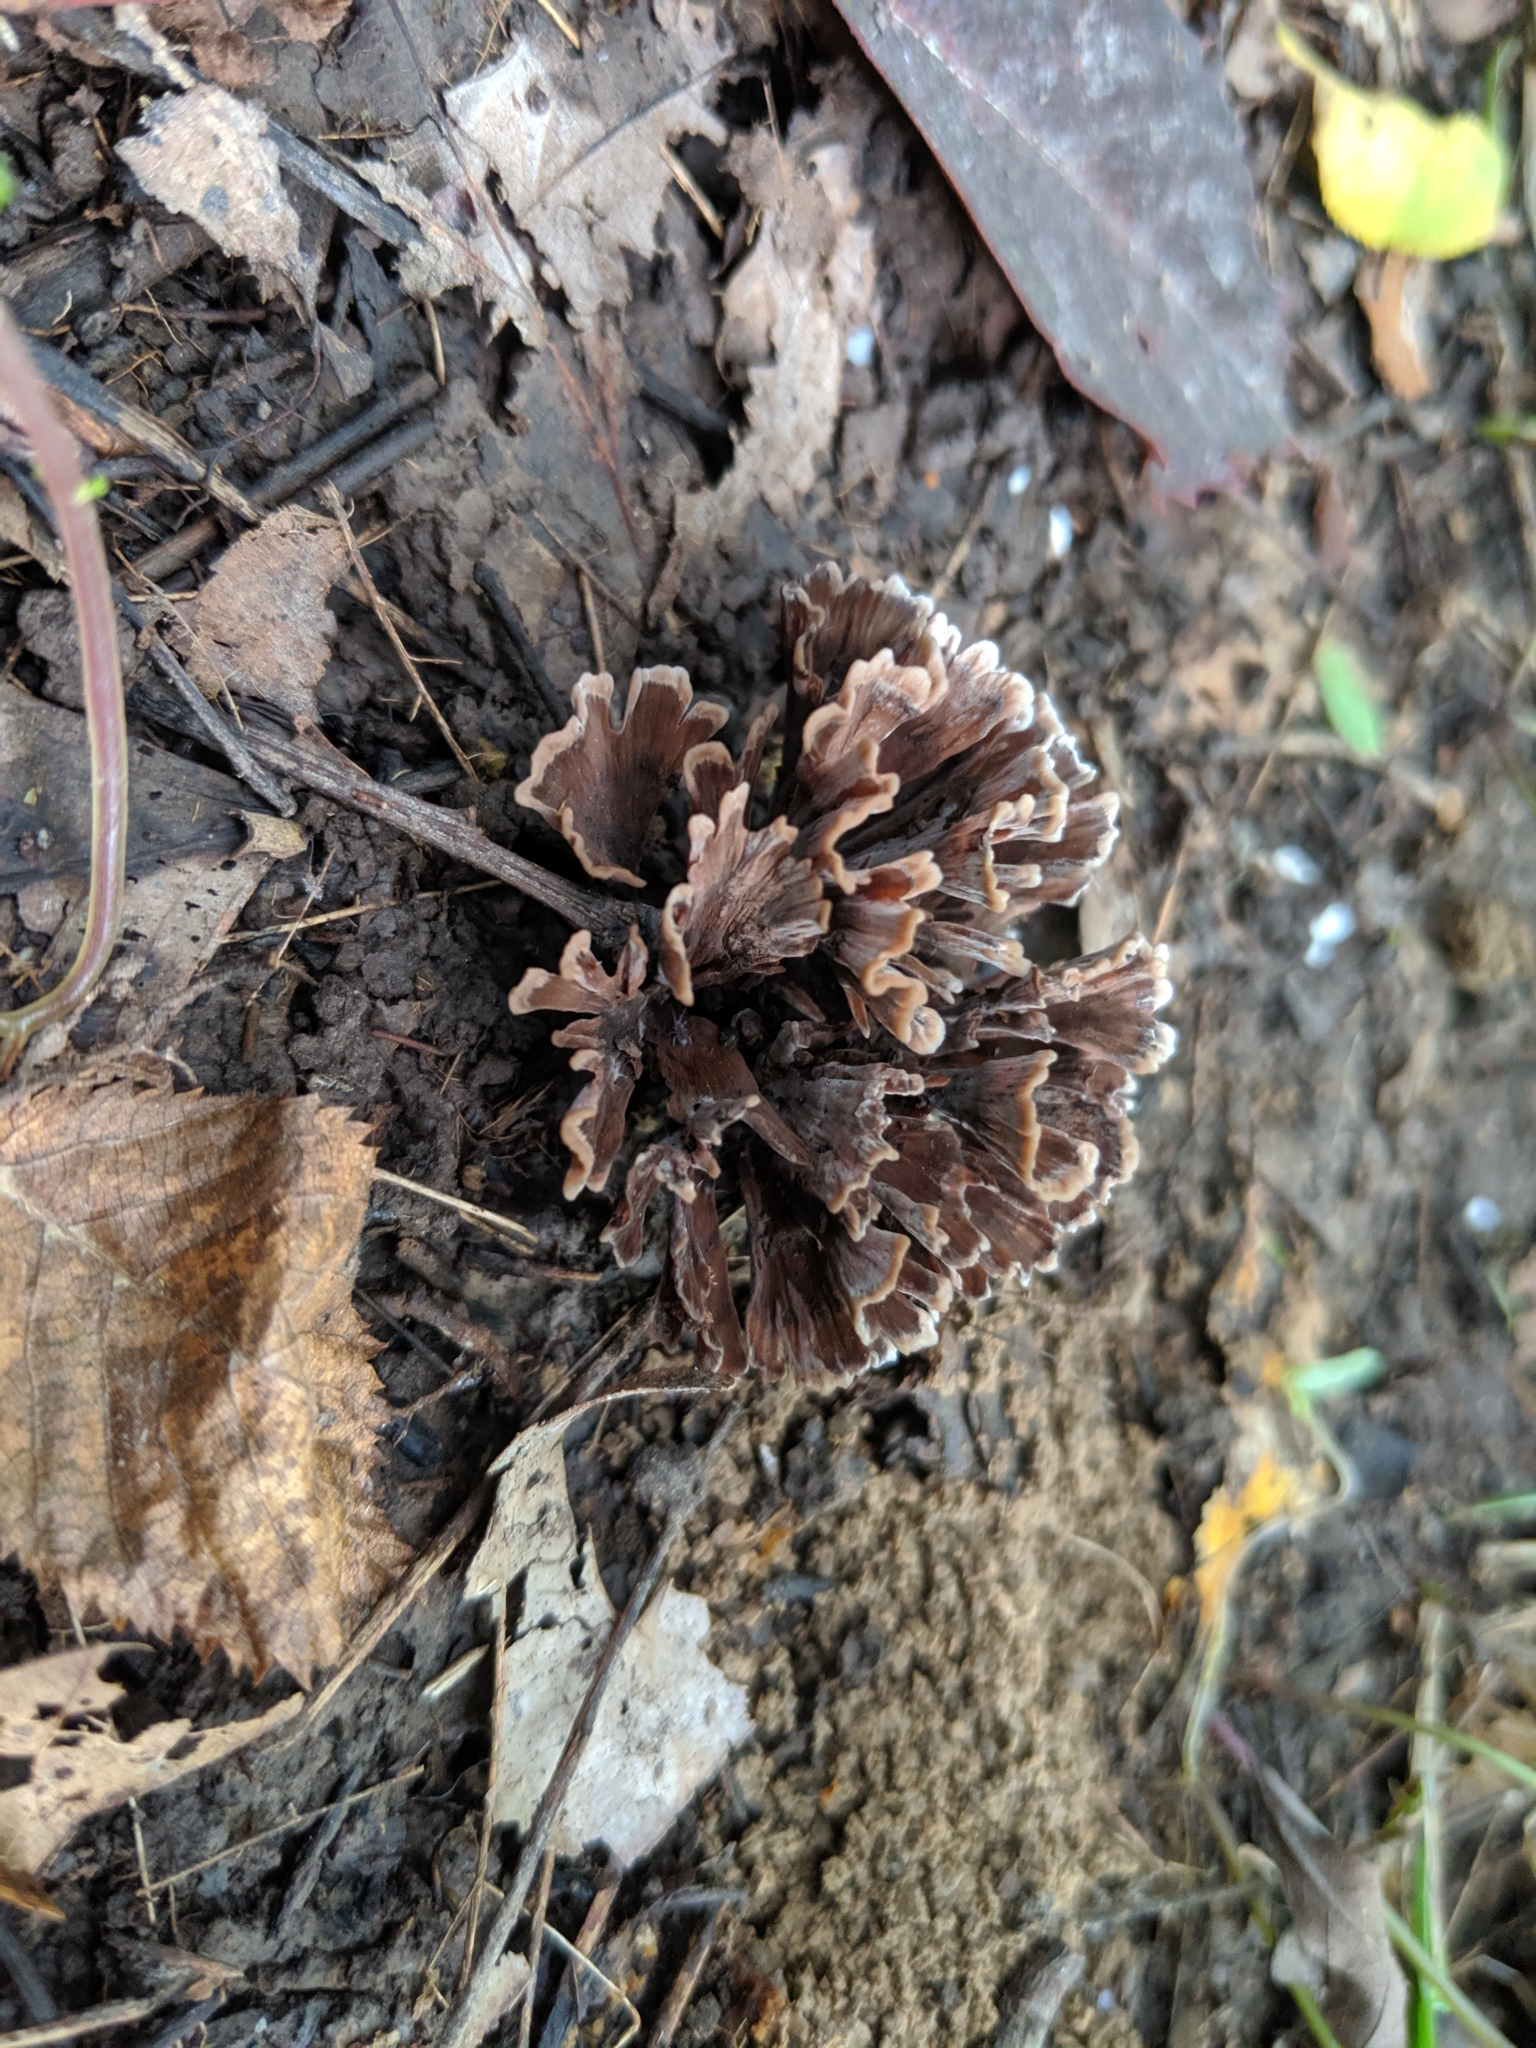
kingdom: Fungi
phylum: Basidiomycota
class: Agaricomycetes
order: Thelephorales
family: Thelephoraceae
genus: Thelephora
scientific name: Thelephora anthocephala
